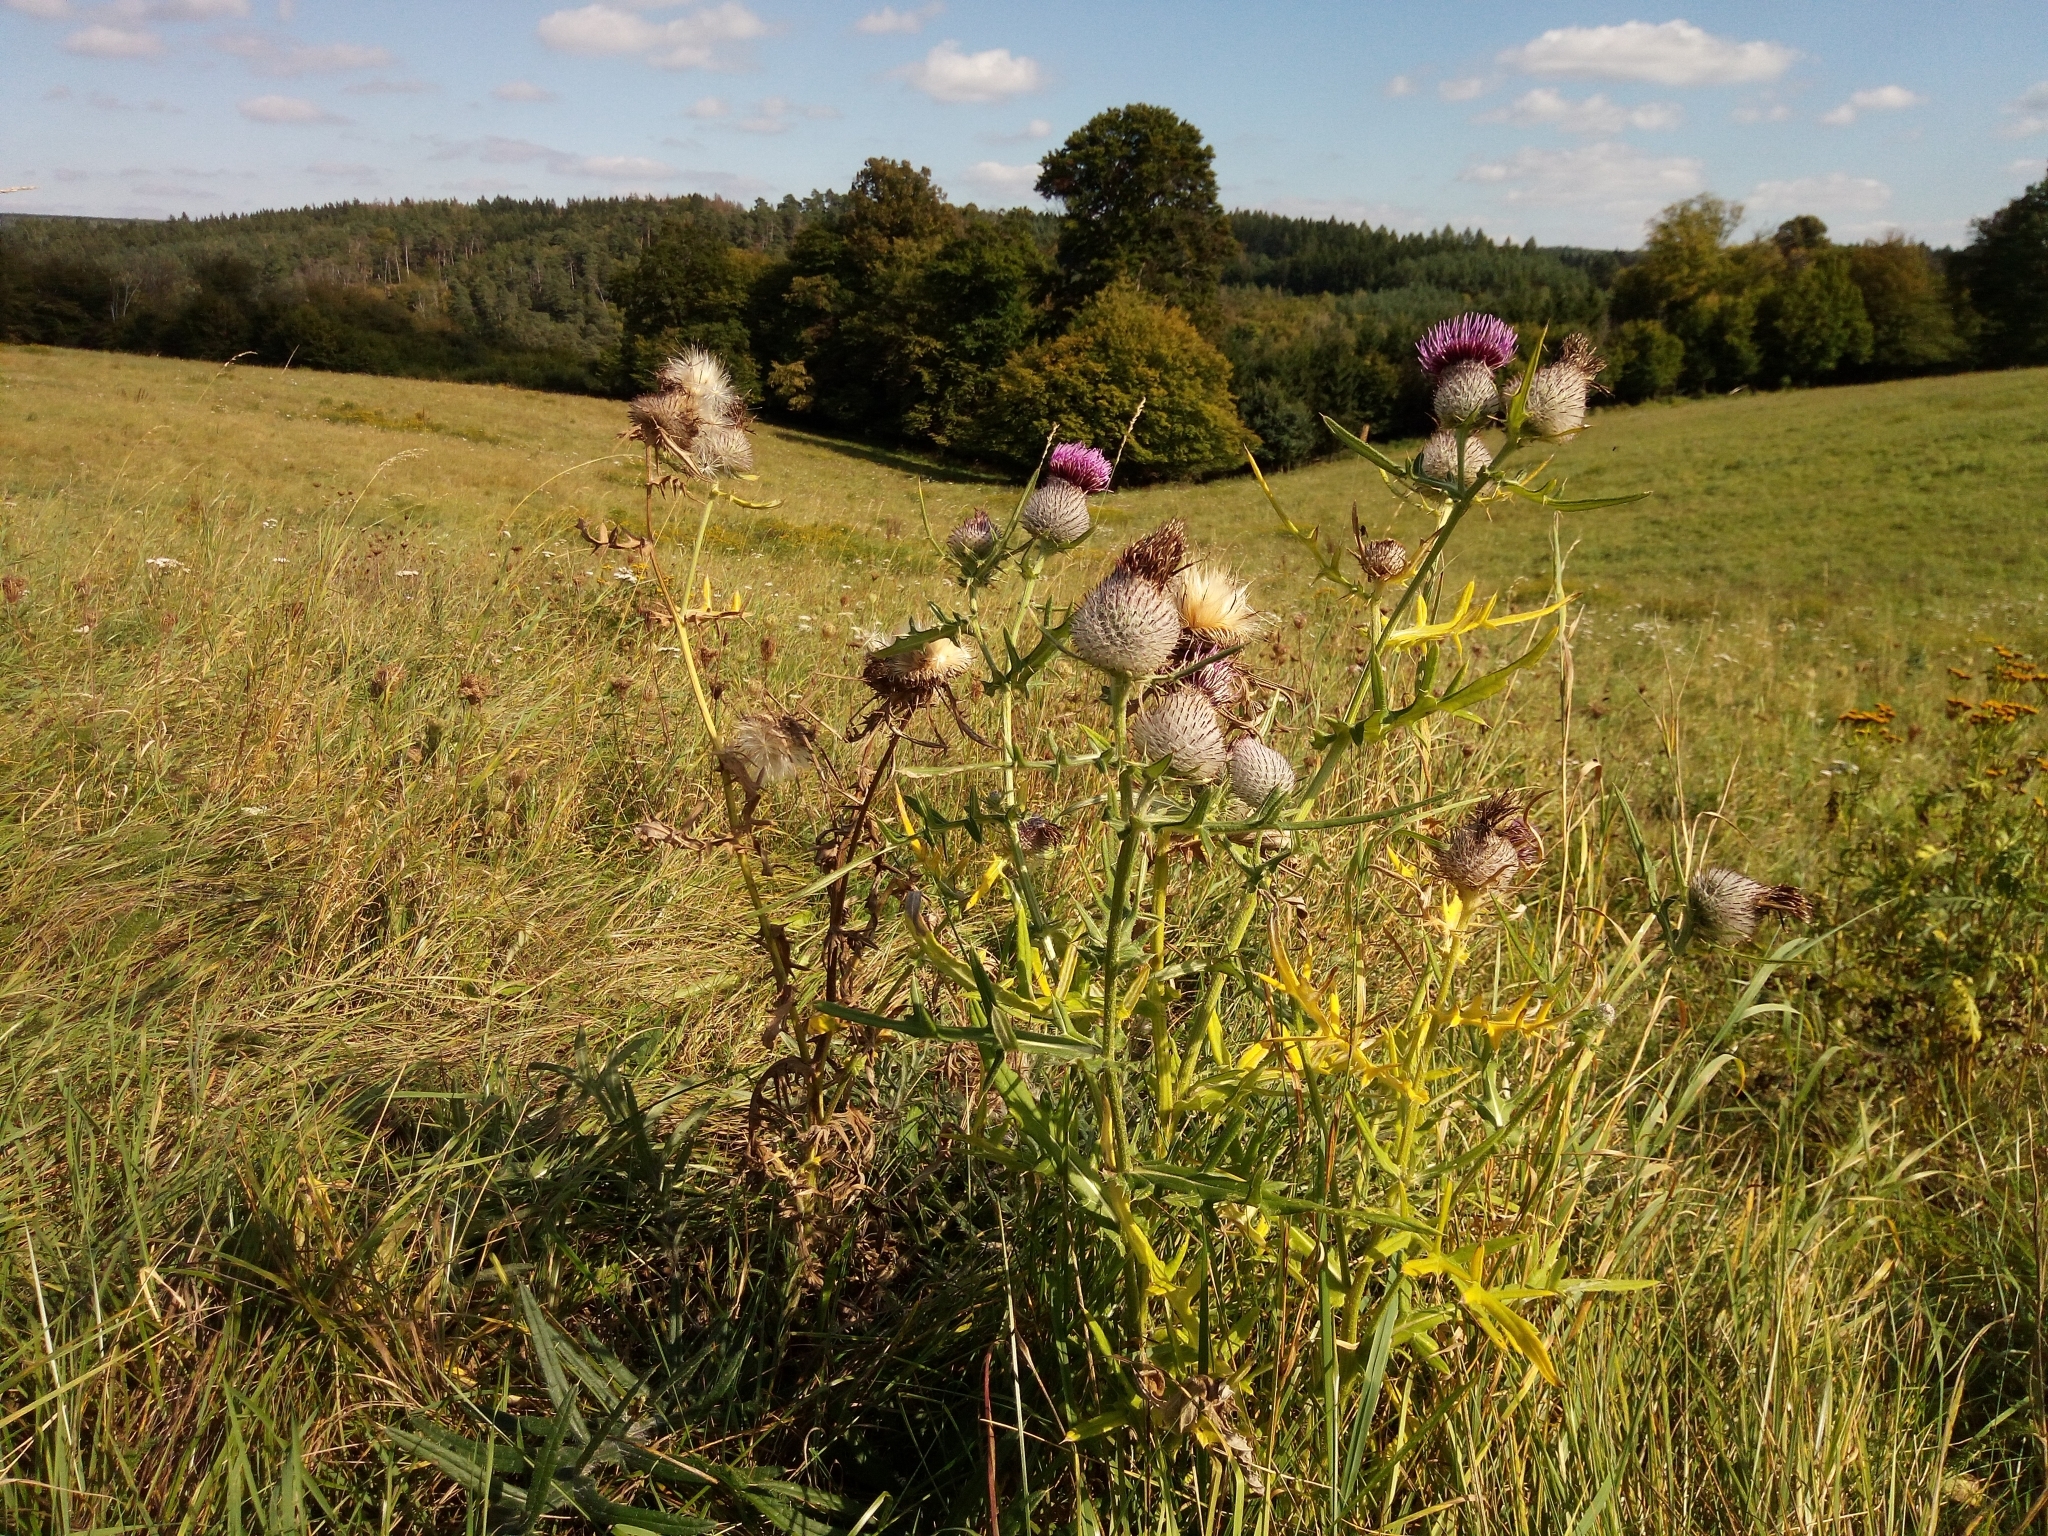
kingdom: Plantae
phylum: Tracheophyta
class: Magnoliopsida
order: Asterales
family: Asteraceae
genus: Lophiolepis
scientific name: Lophiolepis eriophora
